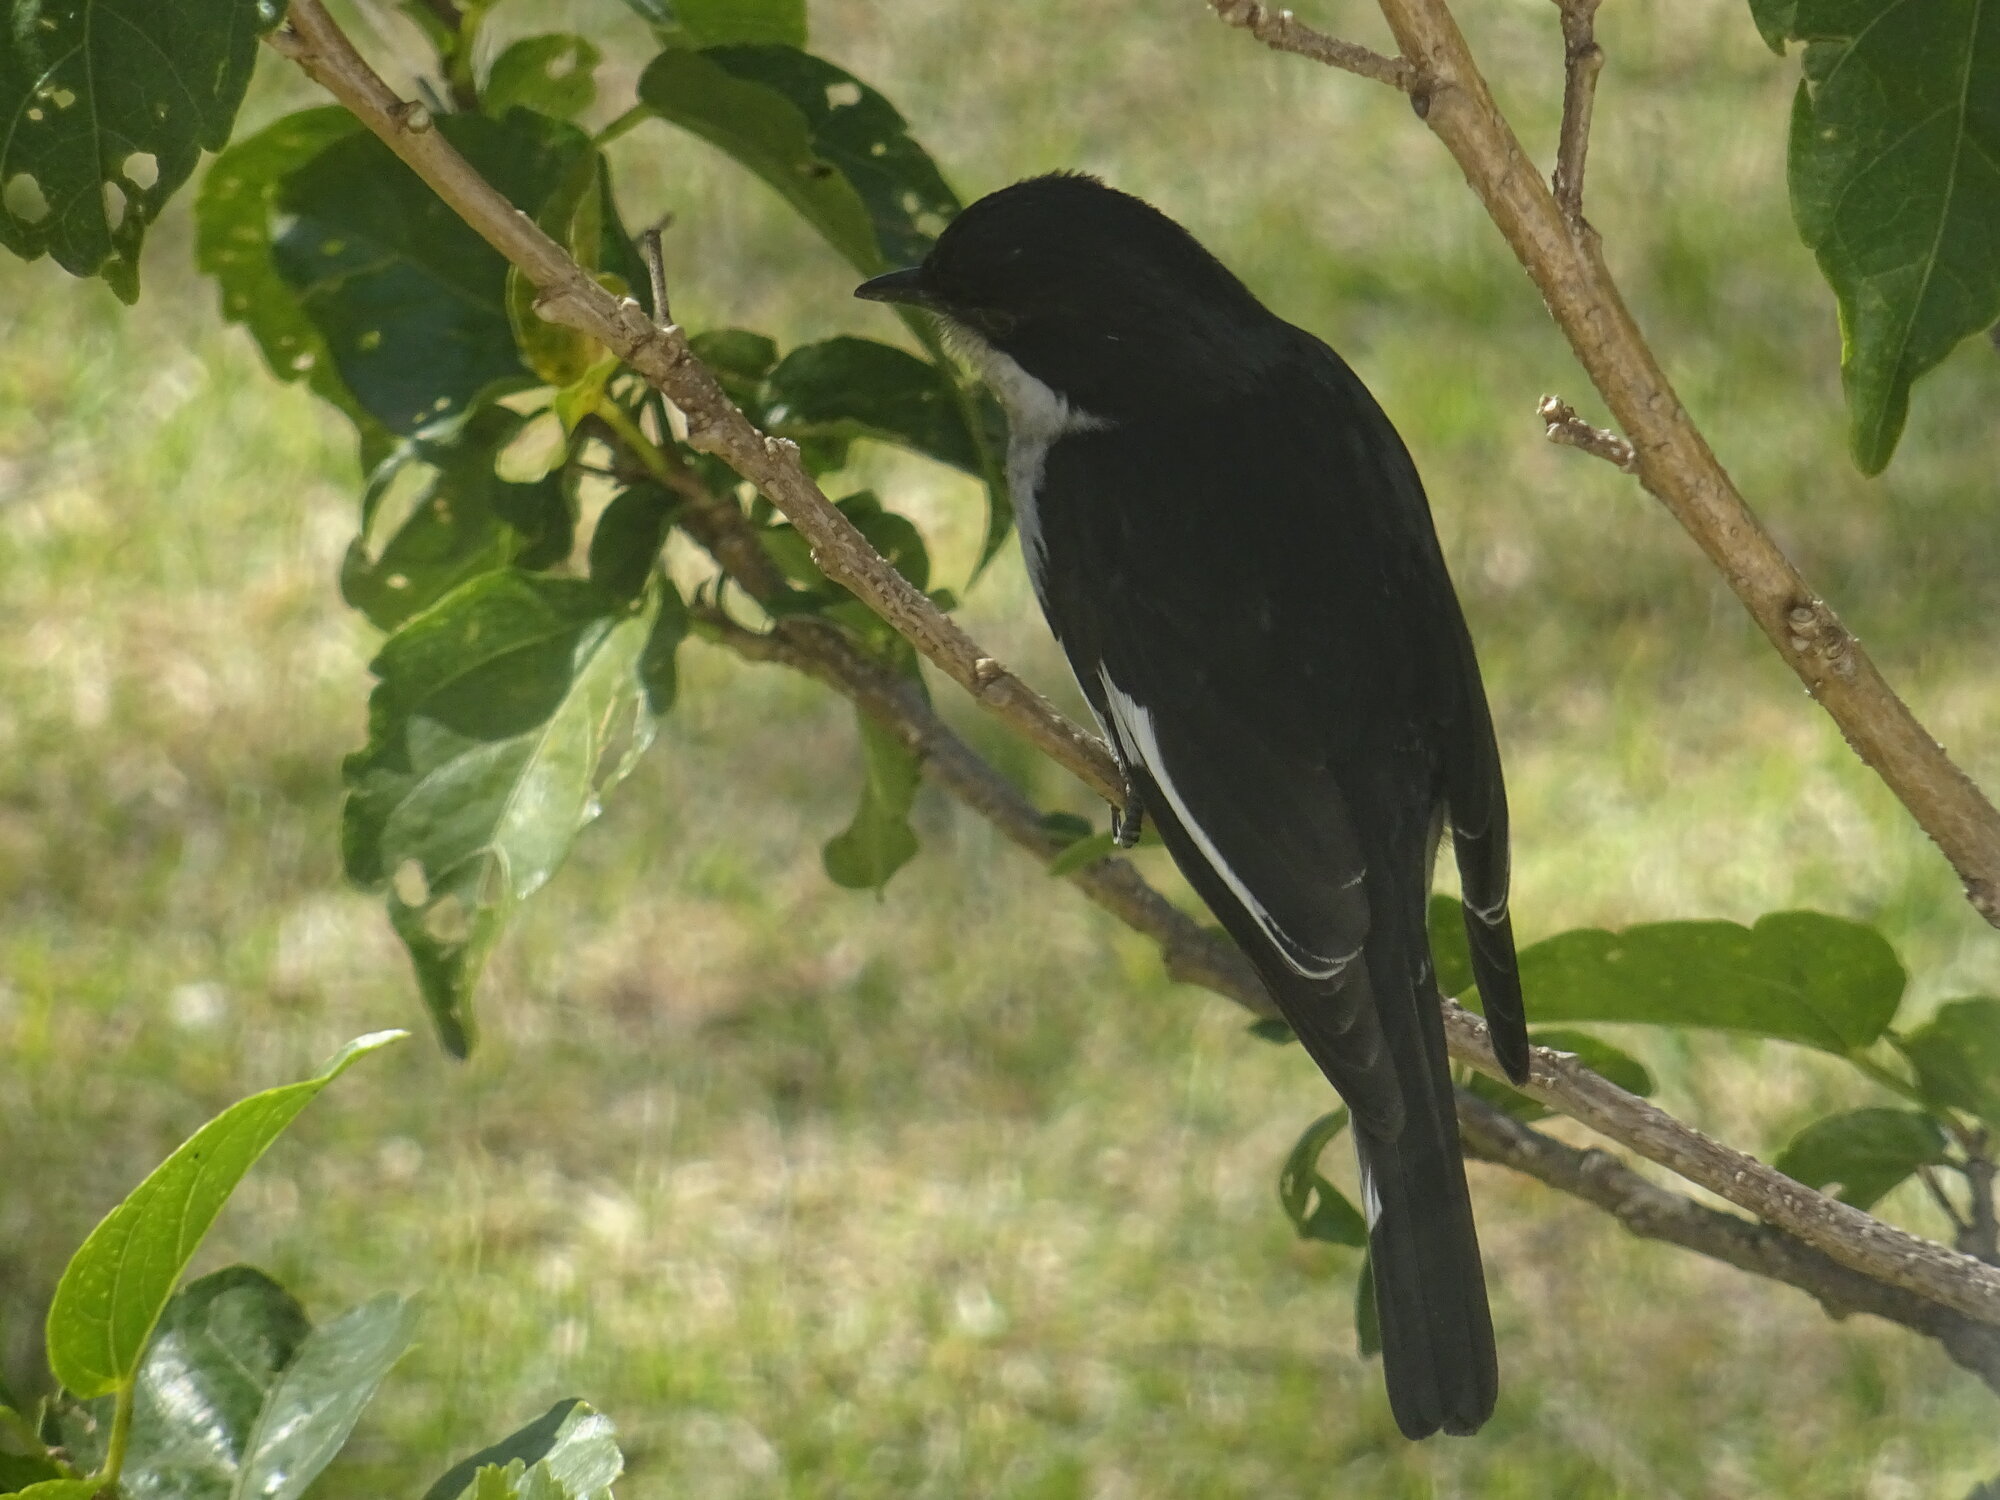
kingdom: Animalia
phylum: Chordata
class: Aves
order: Passeriformes
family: Muscicapidae
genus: Sigelus
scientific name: Sigelus silens
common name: Fiscal flycatcher
